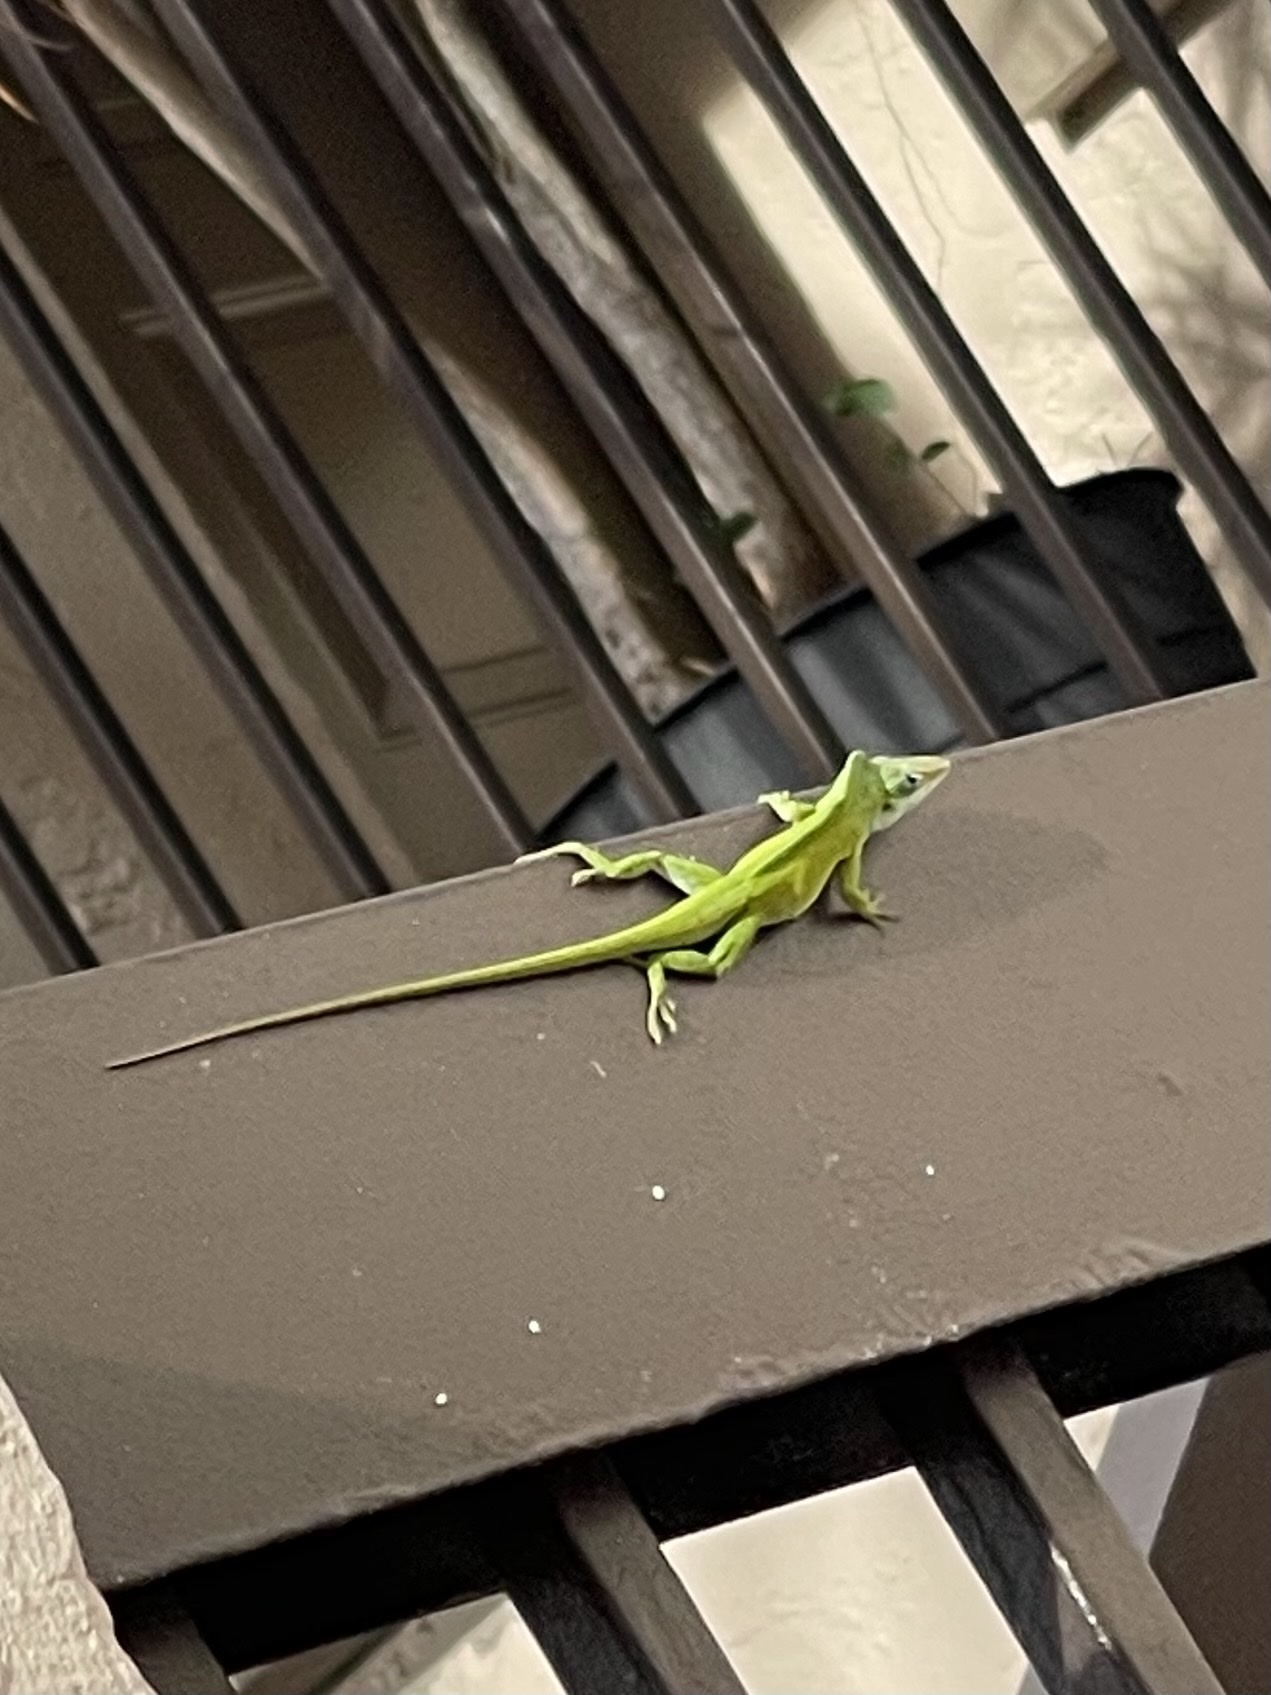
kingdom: Animalia
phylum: Chordata
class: Squamata
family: Dactyloidae
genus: Anolis
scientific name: Anolis carolinensis
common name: Green anole
